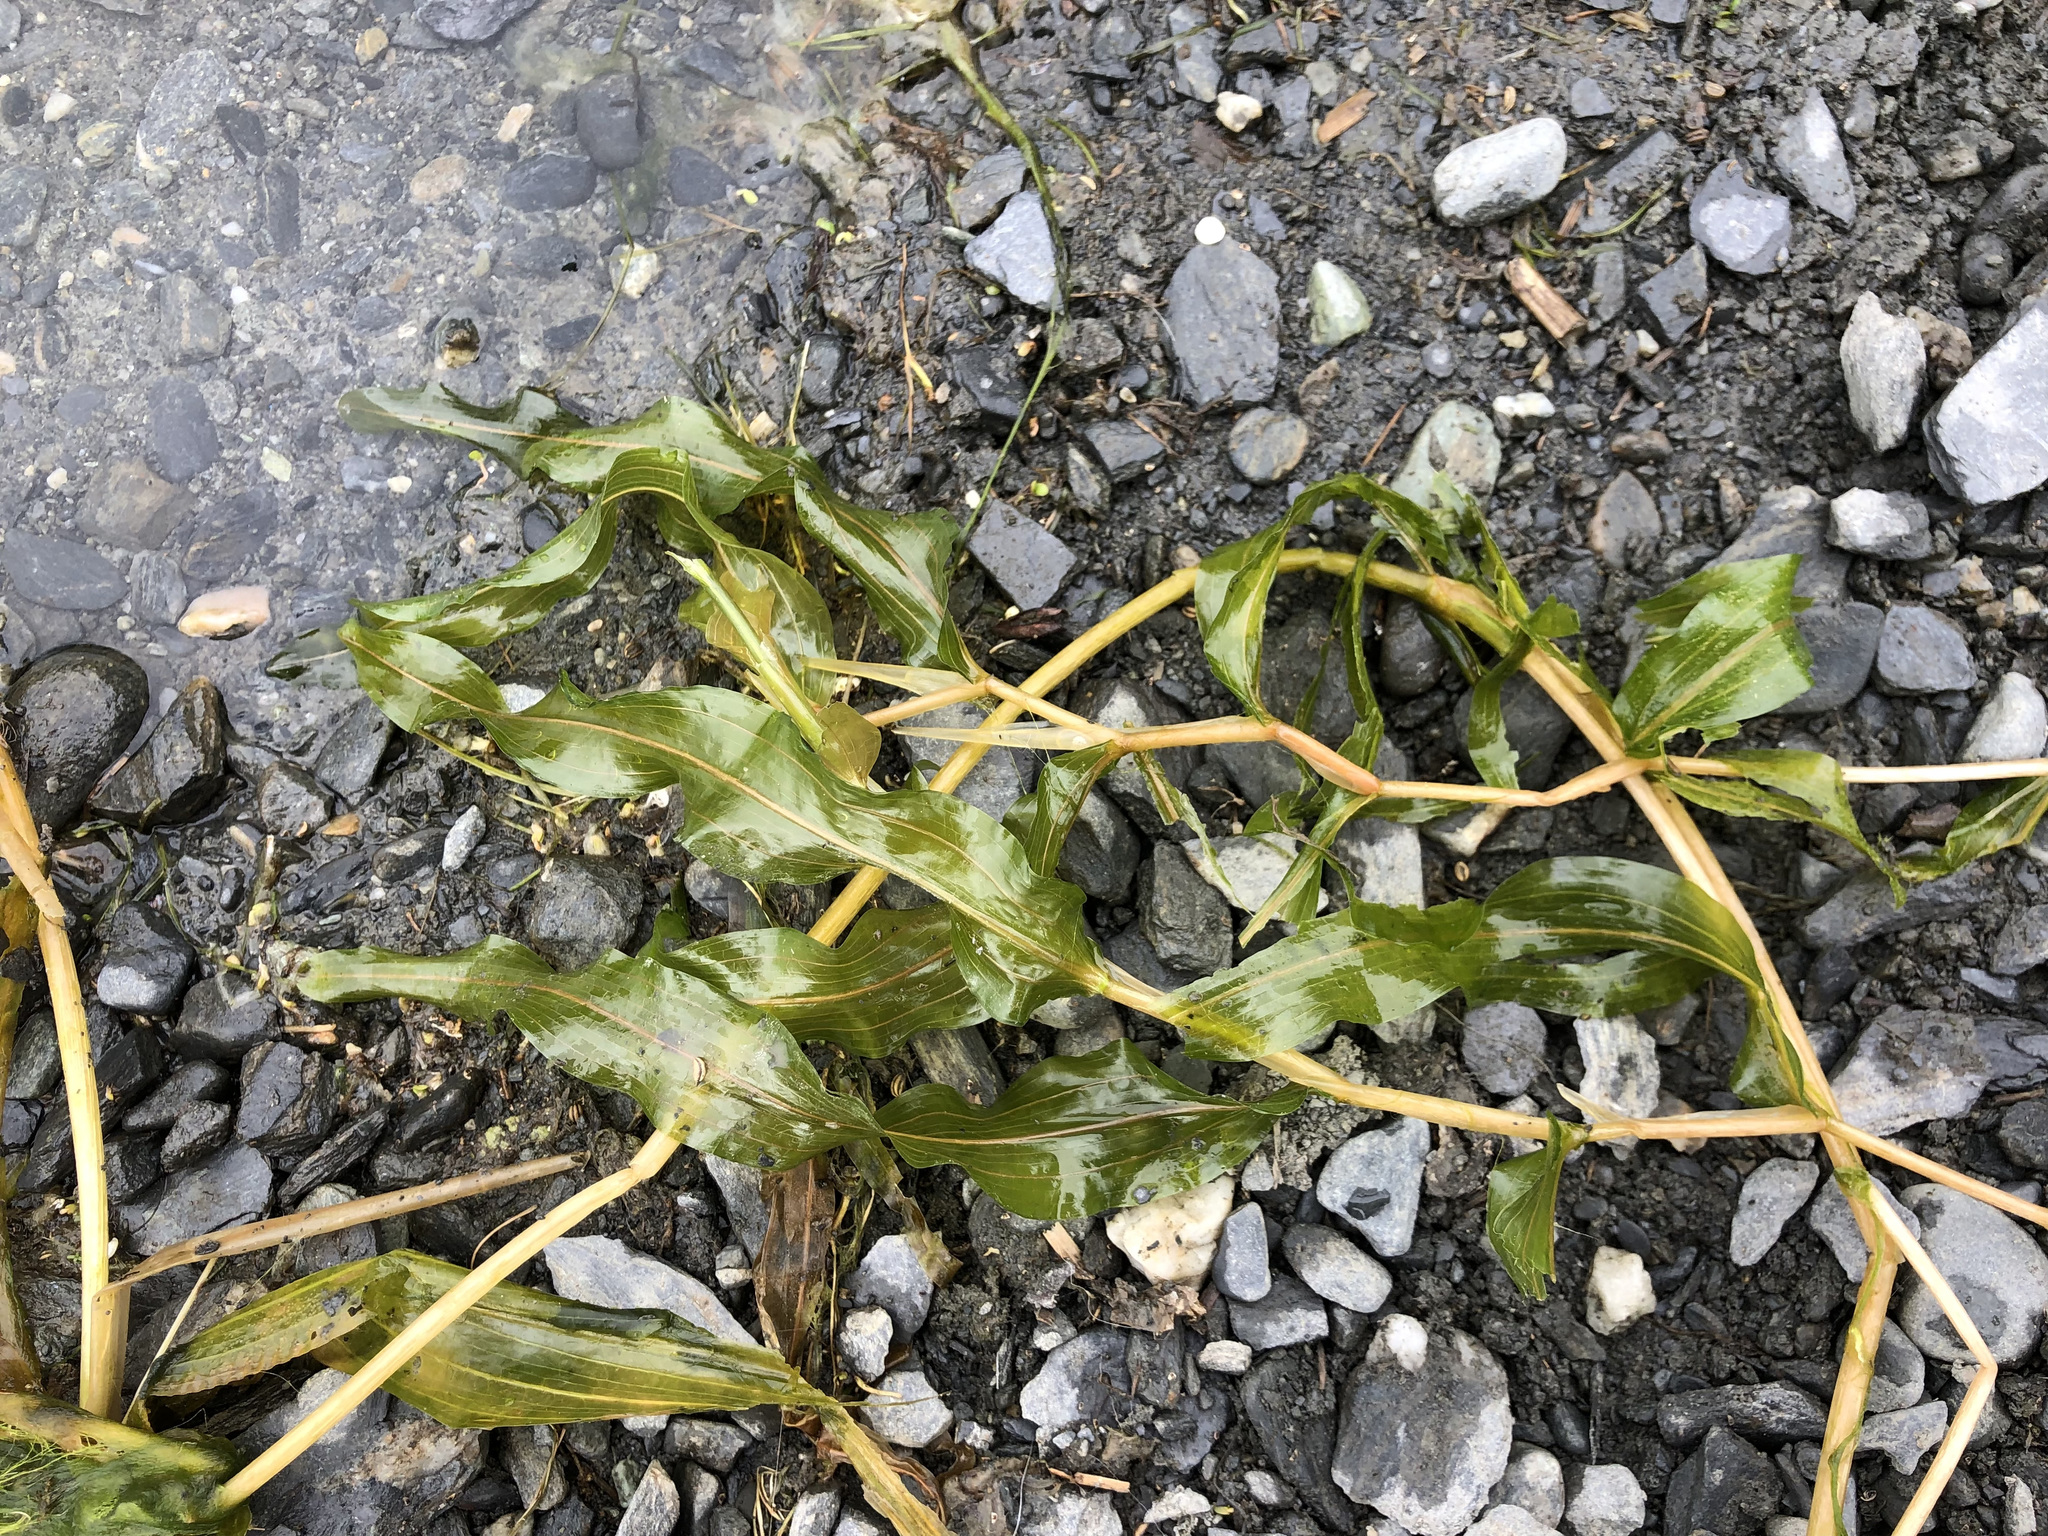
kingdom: Plantae
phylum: Tracheophyta
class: Liliopsida
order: Alismatales
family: Potamogetonaceae
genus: Potamogeton
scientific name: Potamogeton praelongus
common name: Long-stalked pondweed
